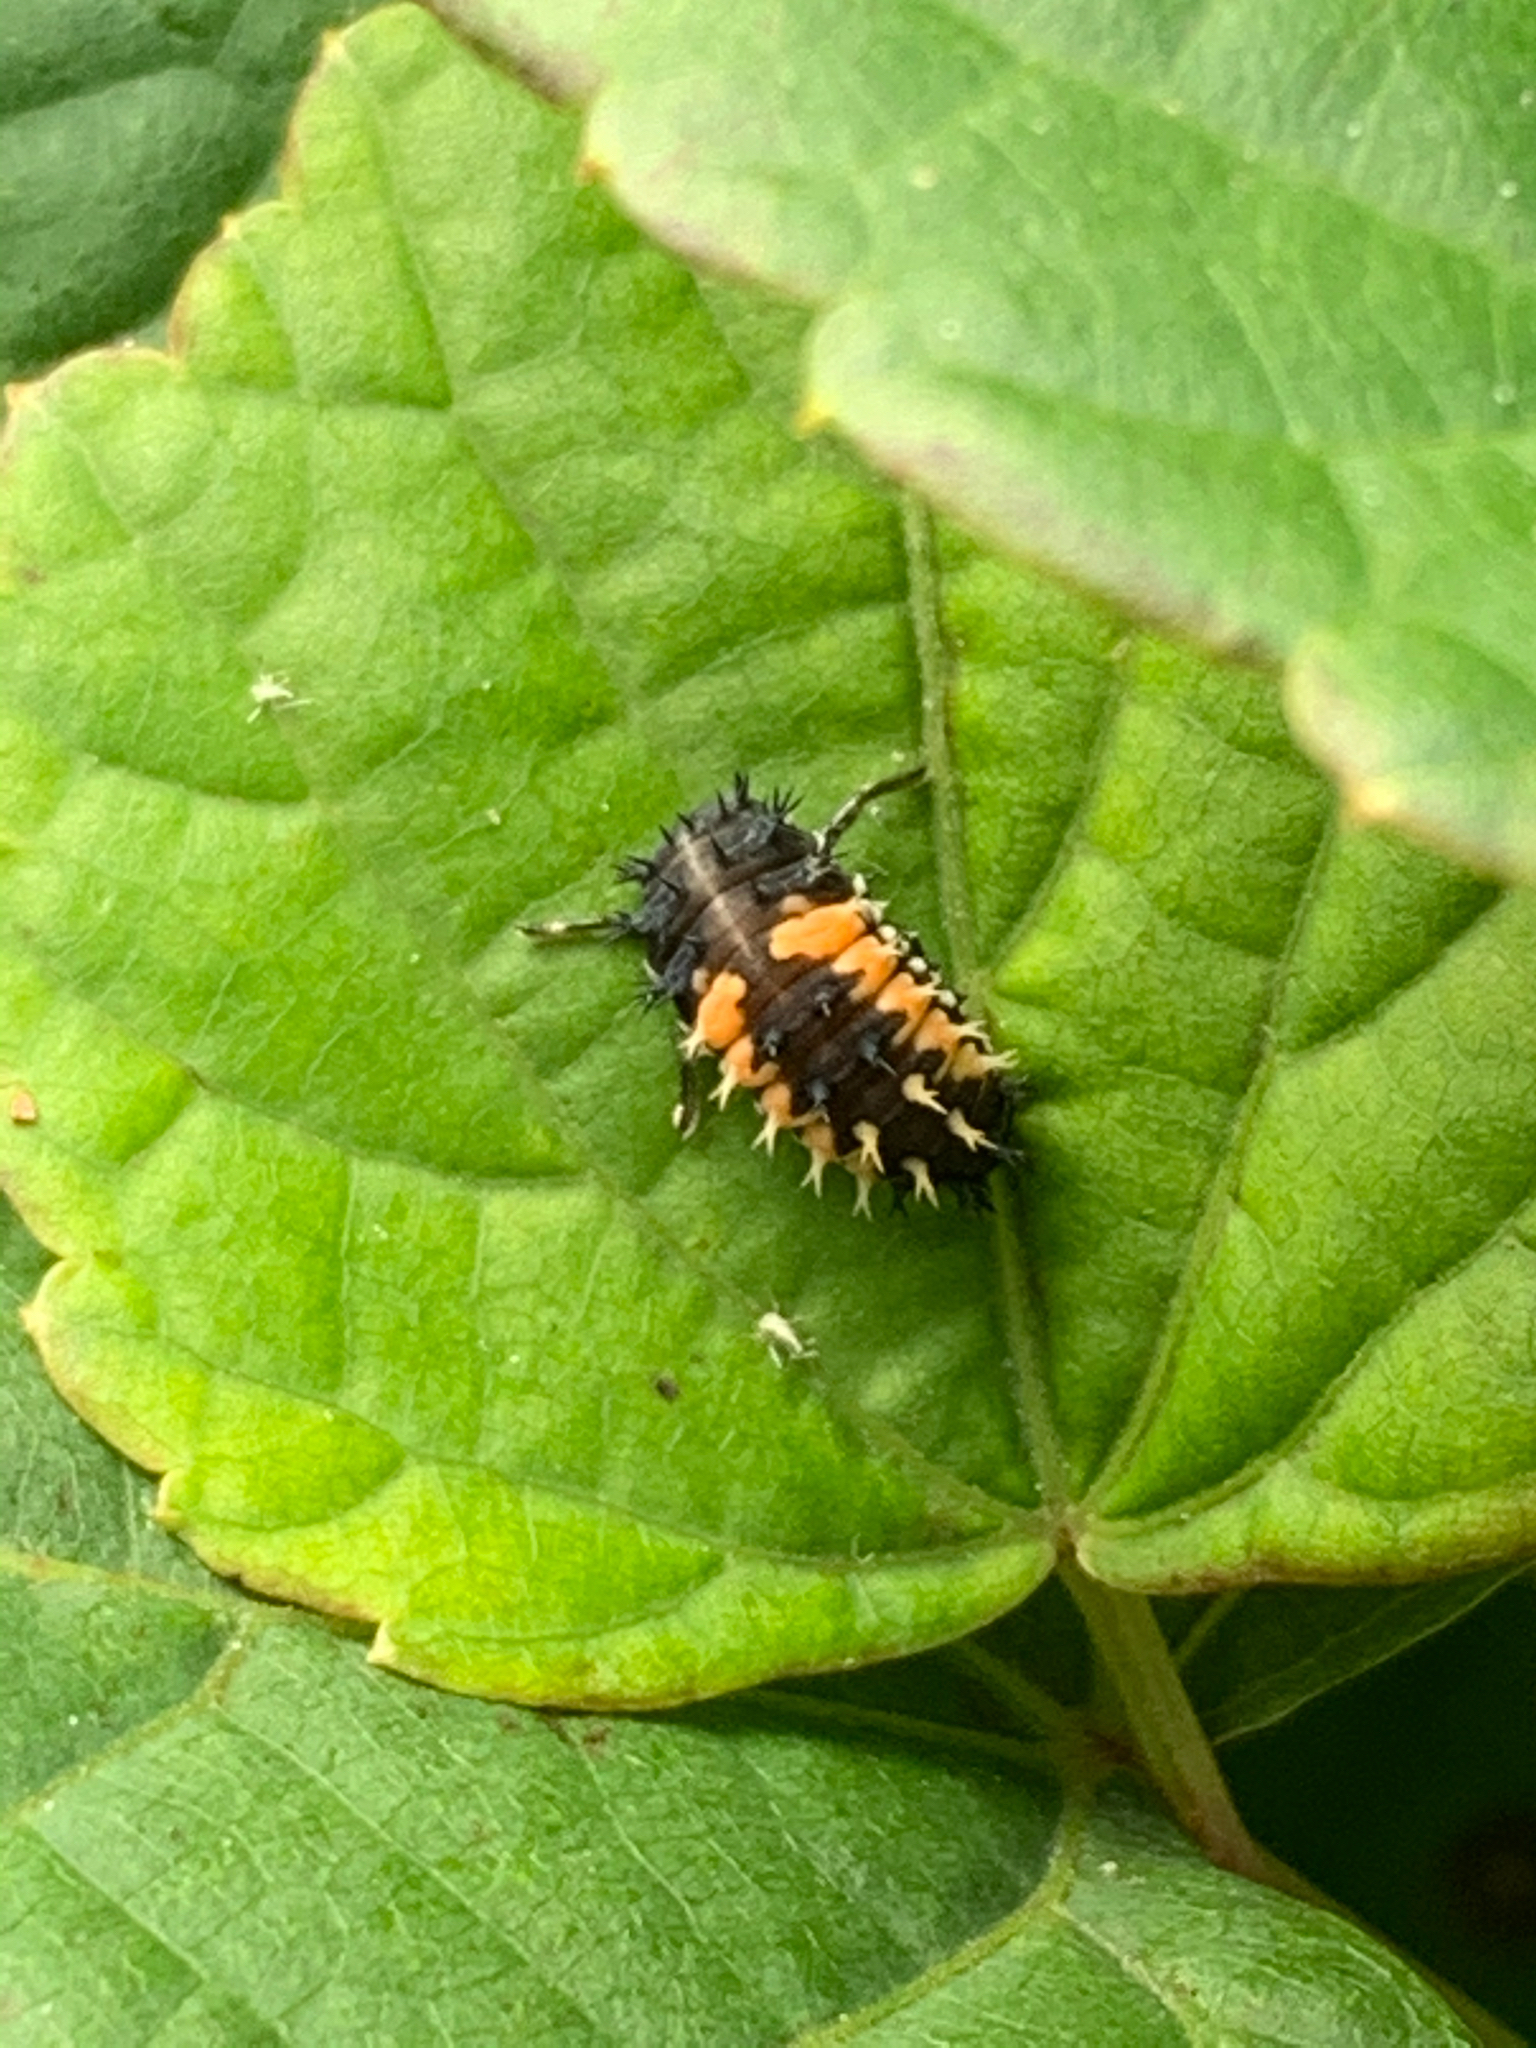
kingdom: Animalia
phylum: Arthropoda
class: Insecta
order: Coleoptera
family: Coccinellidae
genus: Harmonia
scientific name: Harmonia axyridis
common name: Harlequin ladybird
